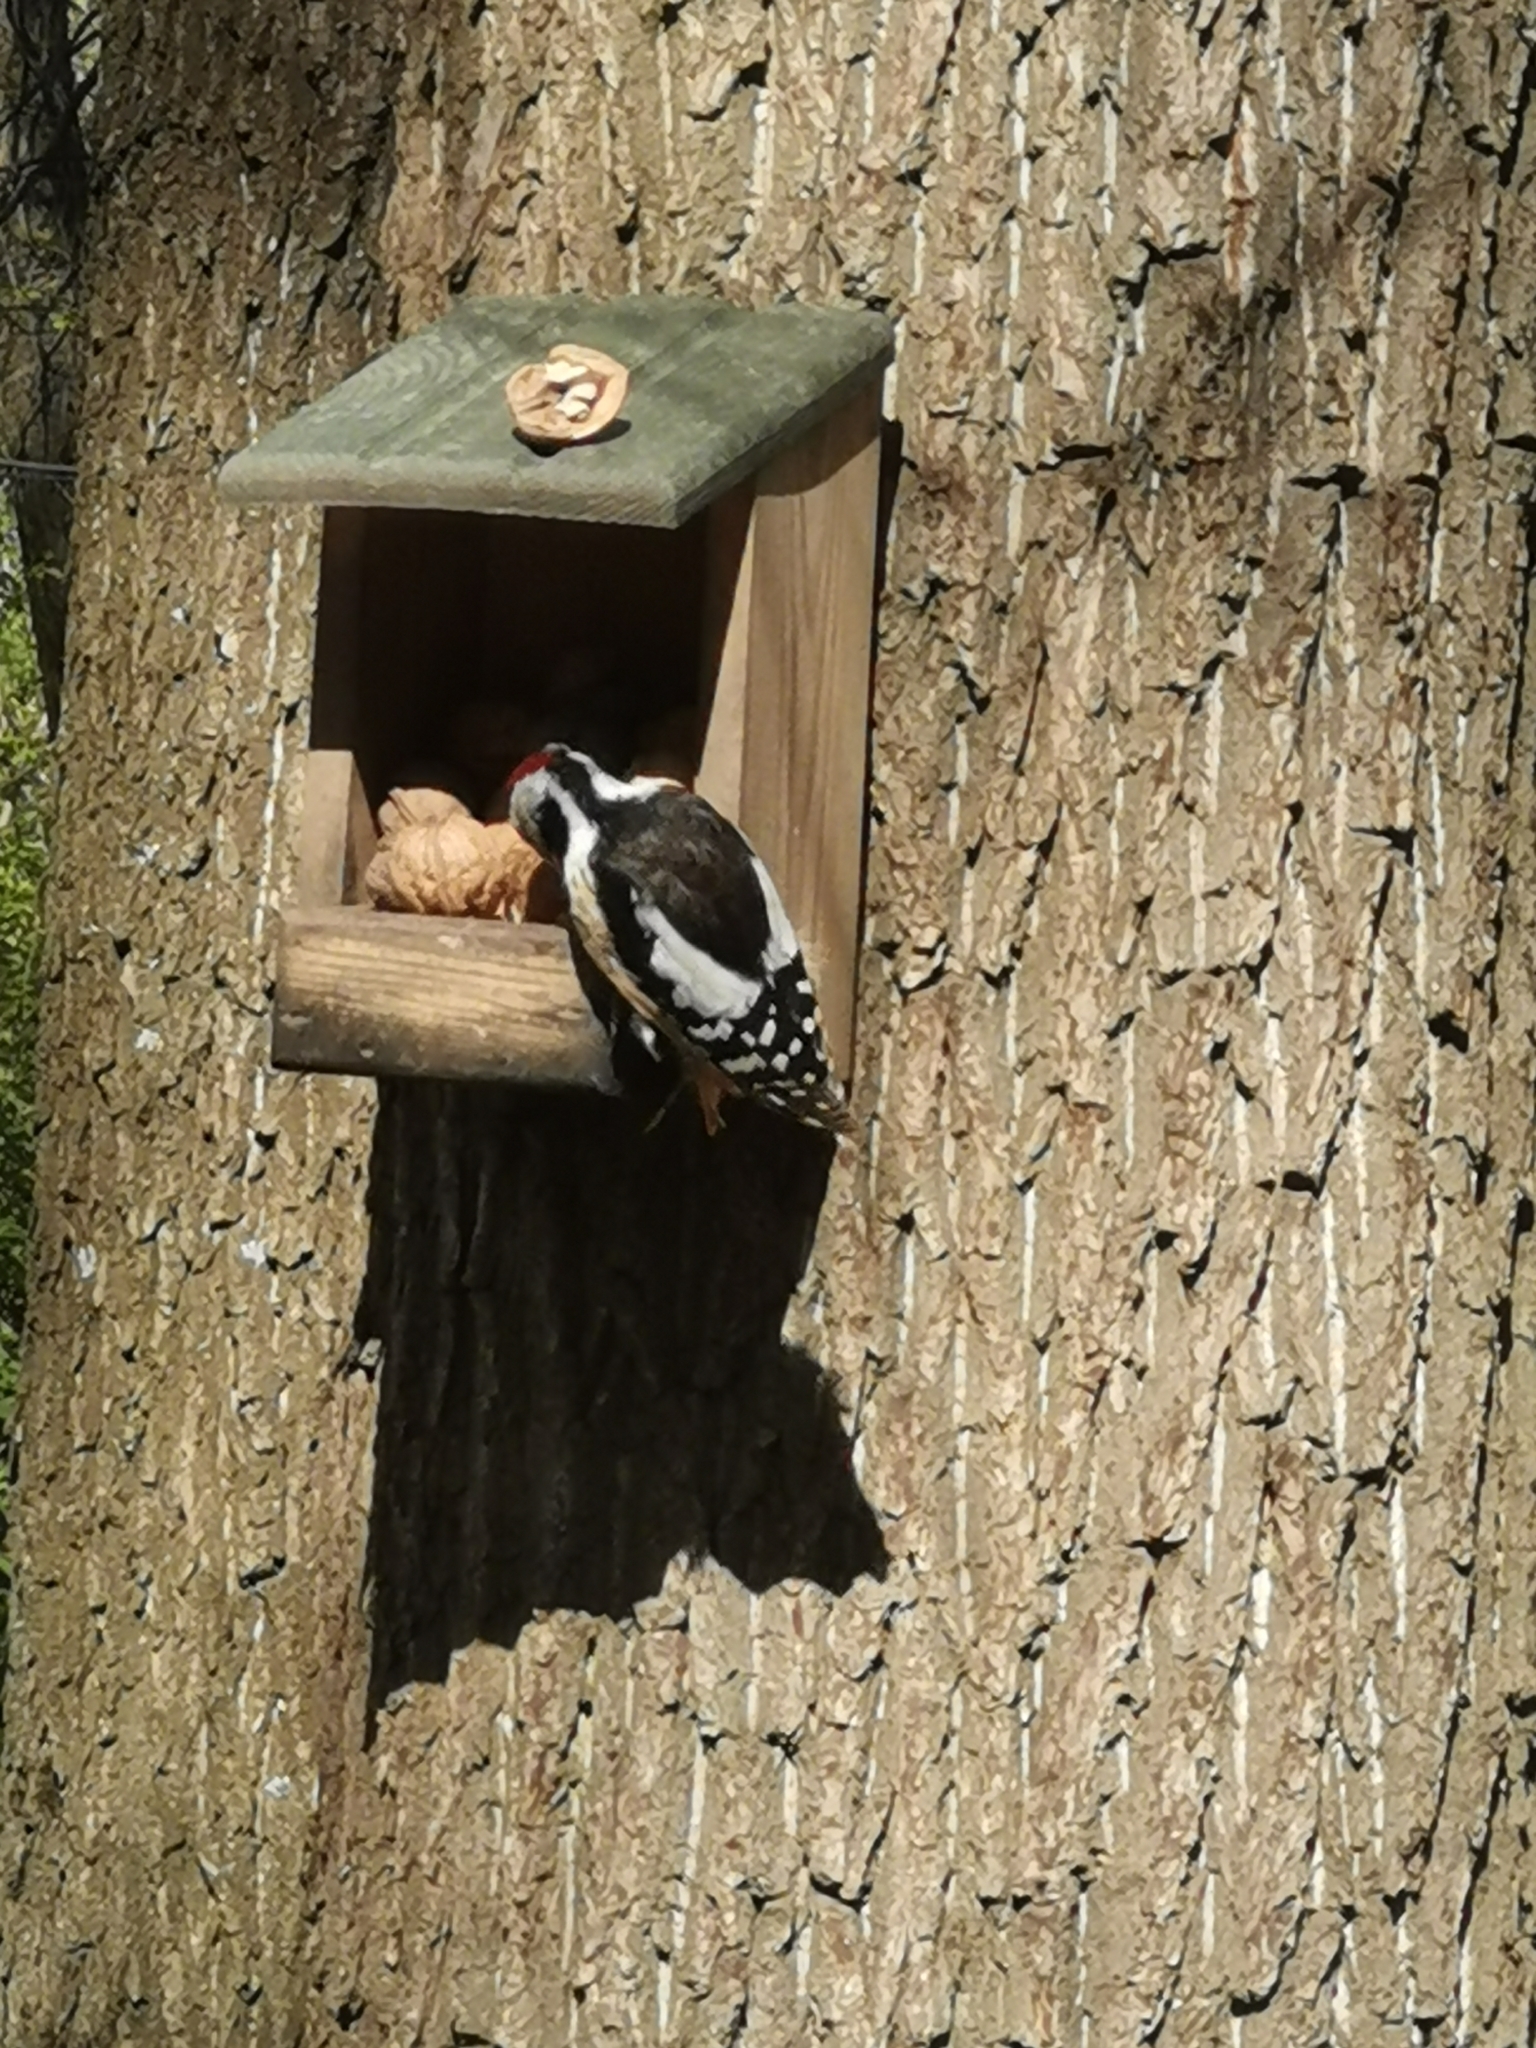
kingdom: Animalia
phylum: Chordata
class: Aves
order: Piciformes
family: Picidae
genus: Dendrocoptes
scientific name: Dendrocoptes medius
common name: Middle spotted woodpecker
